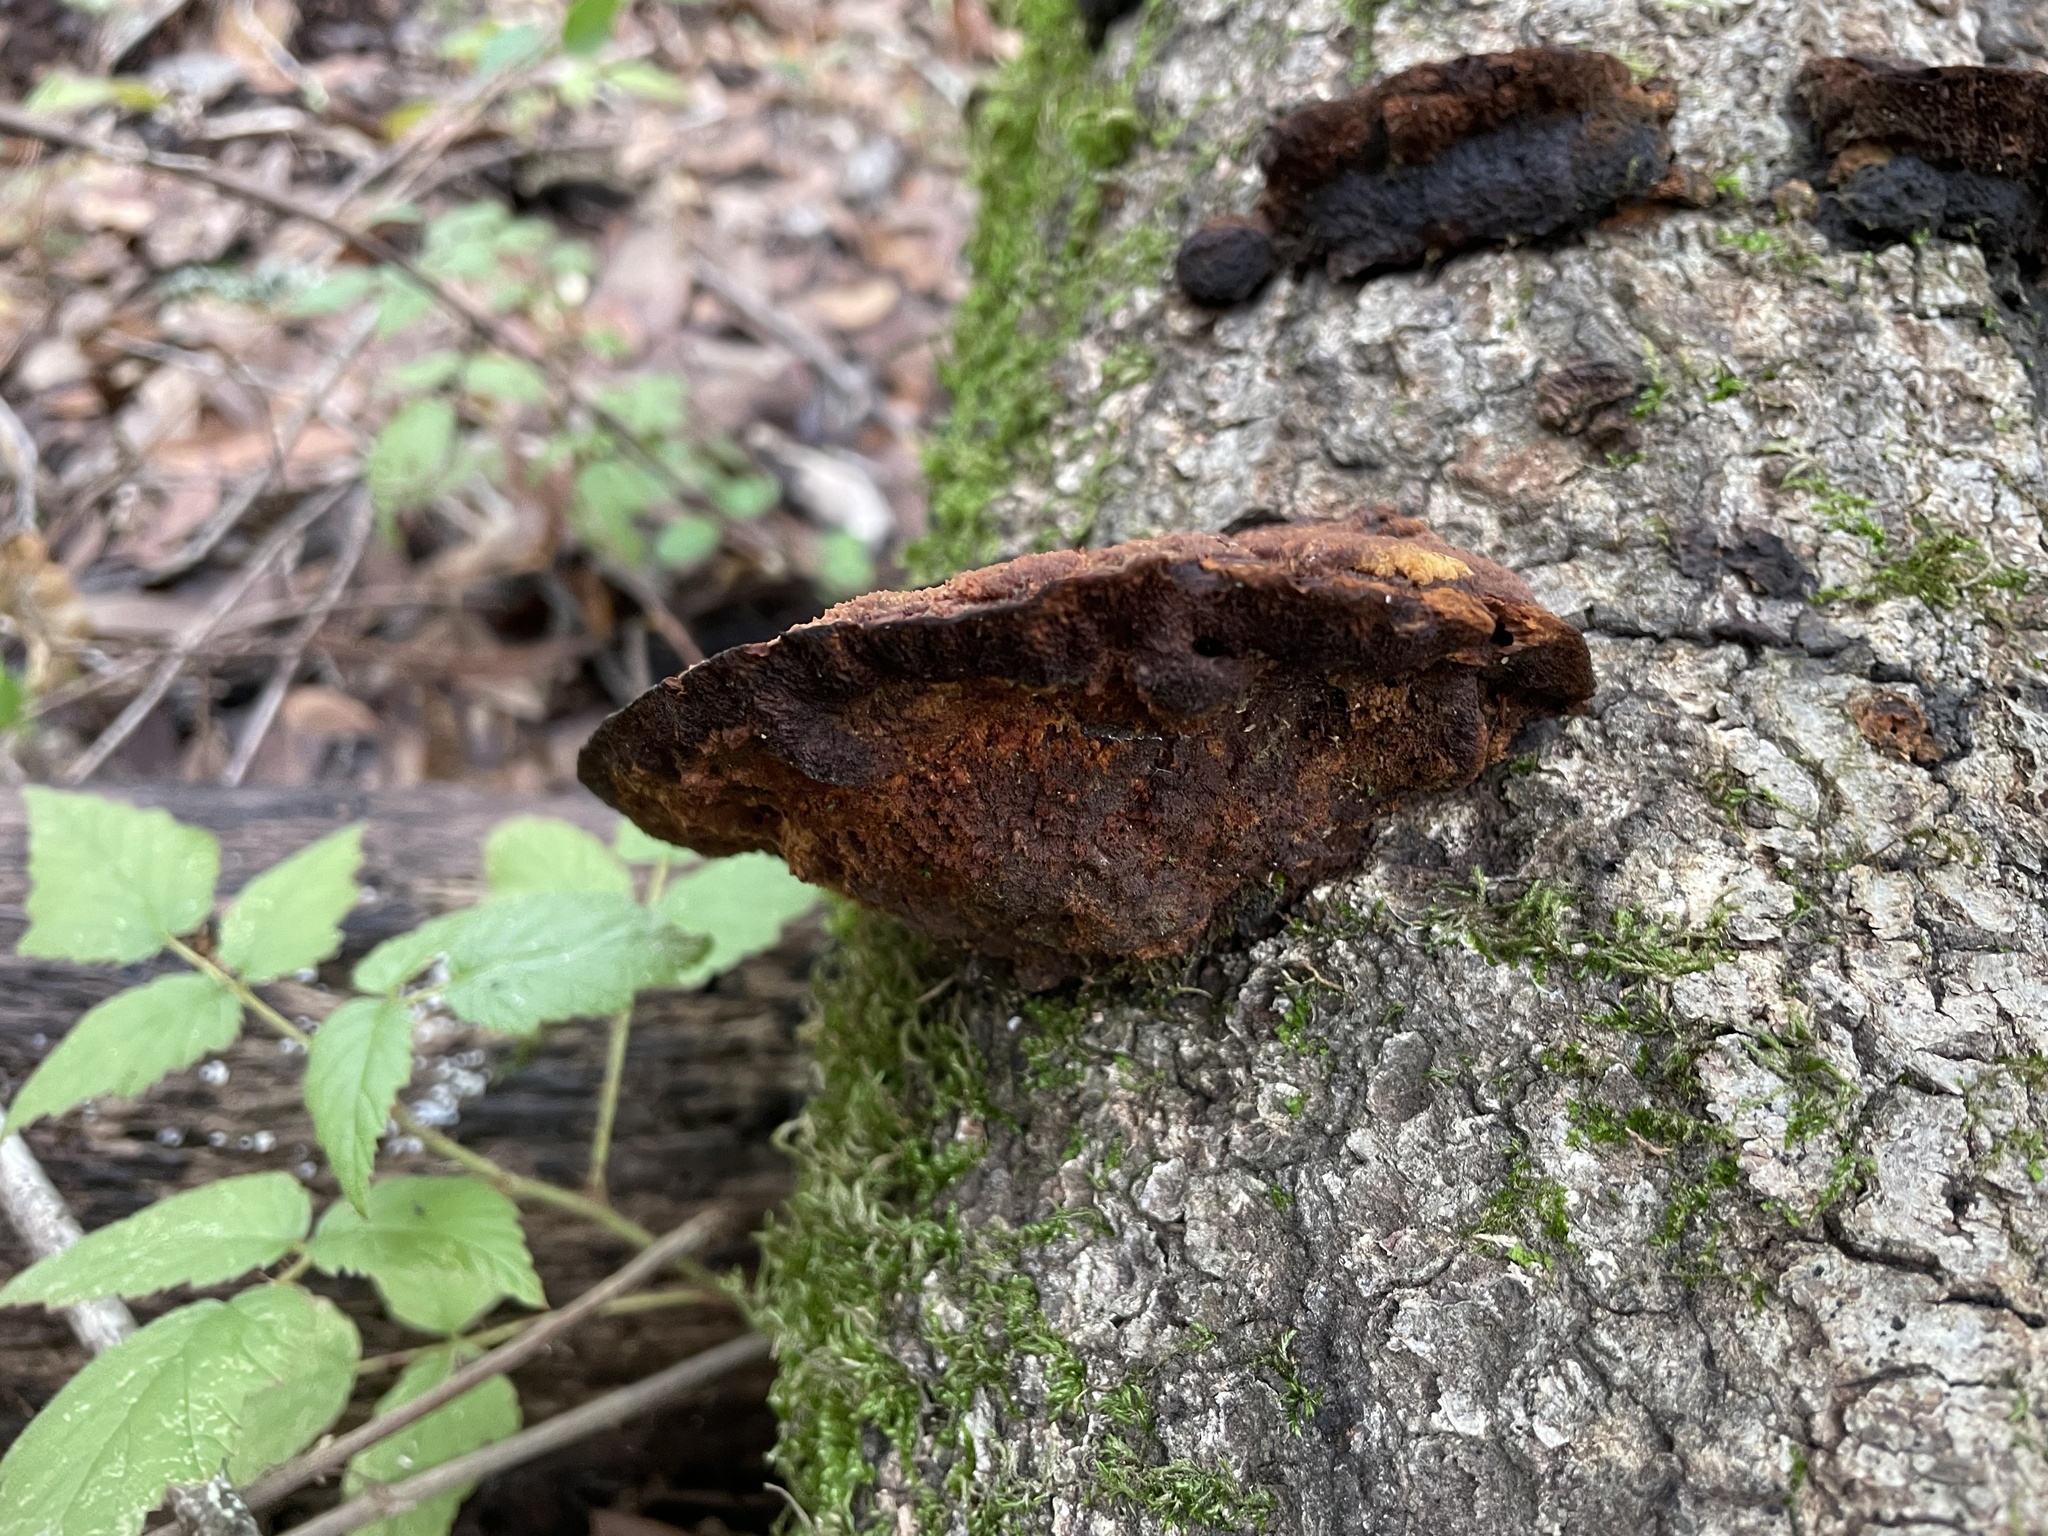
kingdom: Fungi
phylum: Basidiomycota
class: Agaricomycetes
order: Hymenochaetales
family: Hymenochaetaceae
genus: Phellinus
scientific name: Phellinus gilvus
